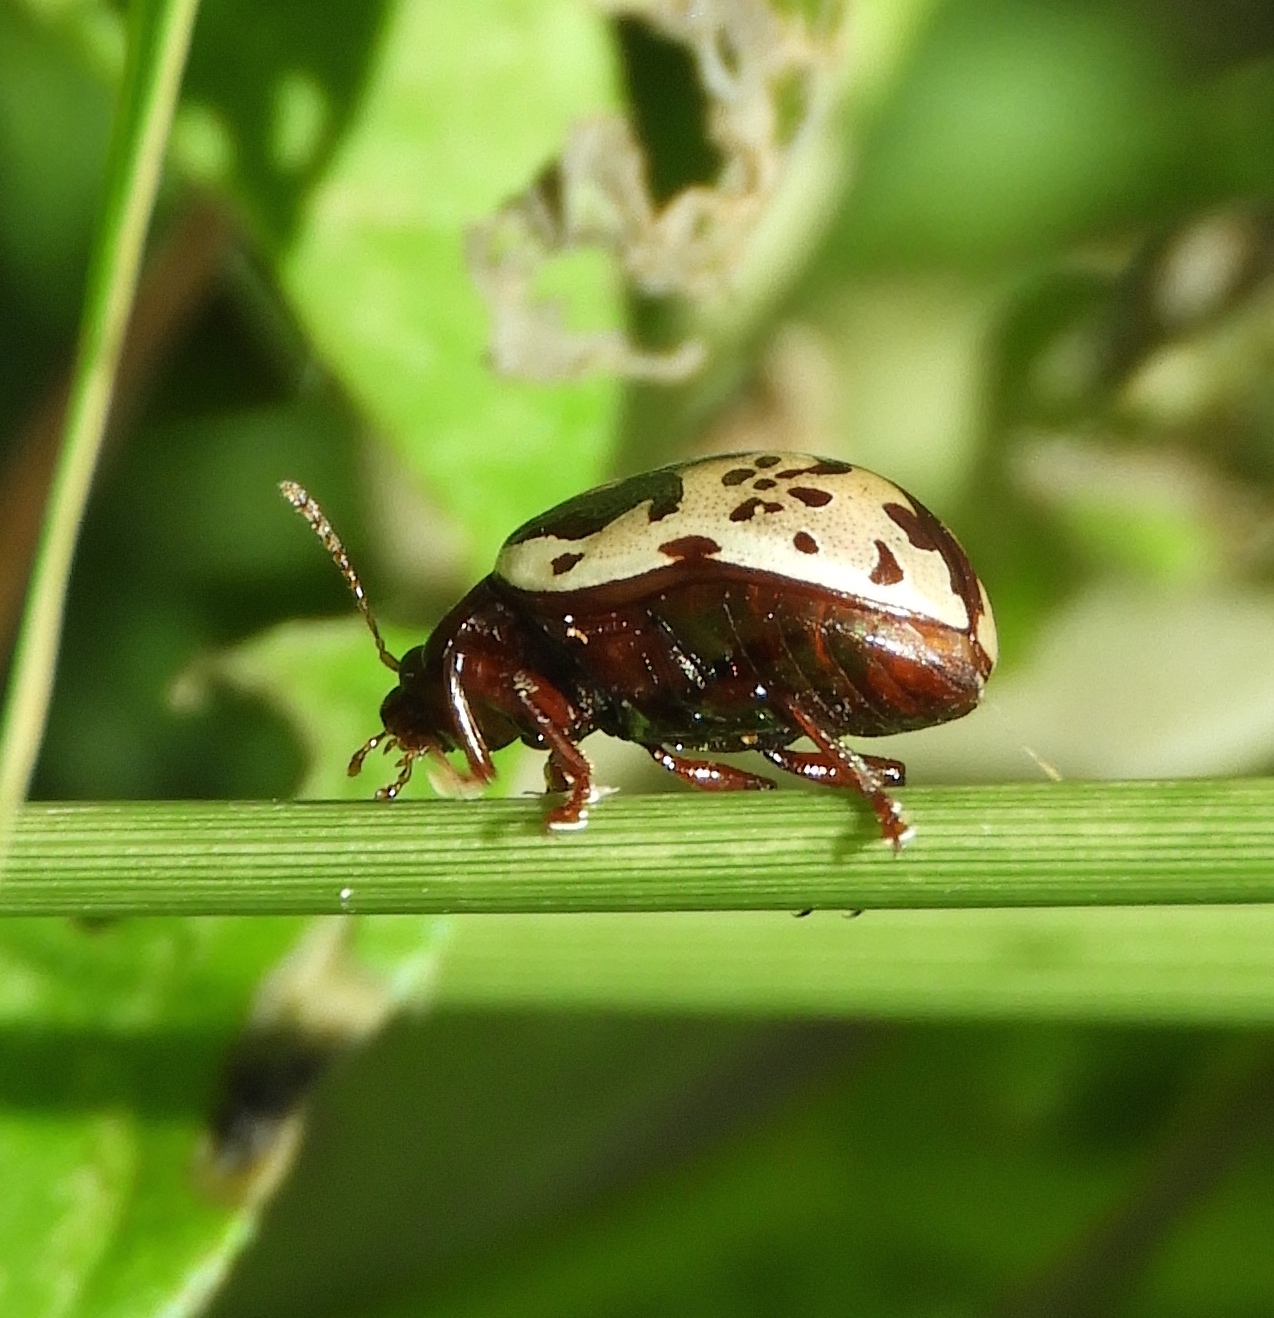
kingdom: Animalia
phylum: Arthropoda
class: Insecta
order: Coleoptera
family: Chrysomelidae
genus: Calligrapha
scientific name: Calligrapha intermedia
